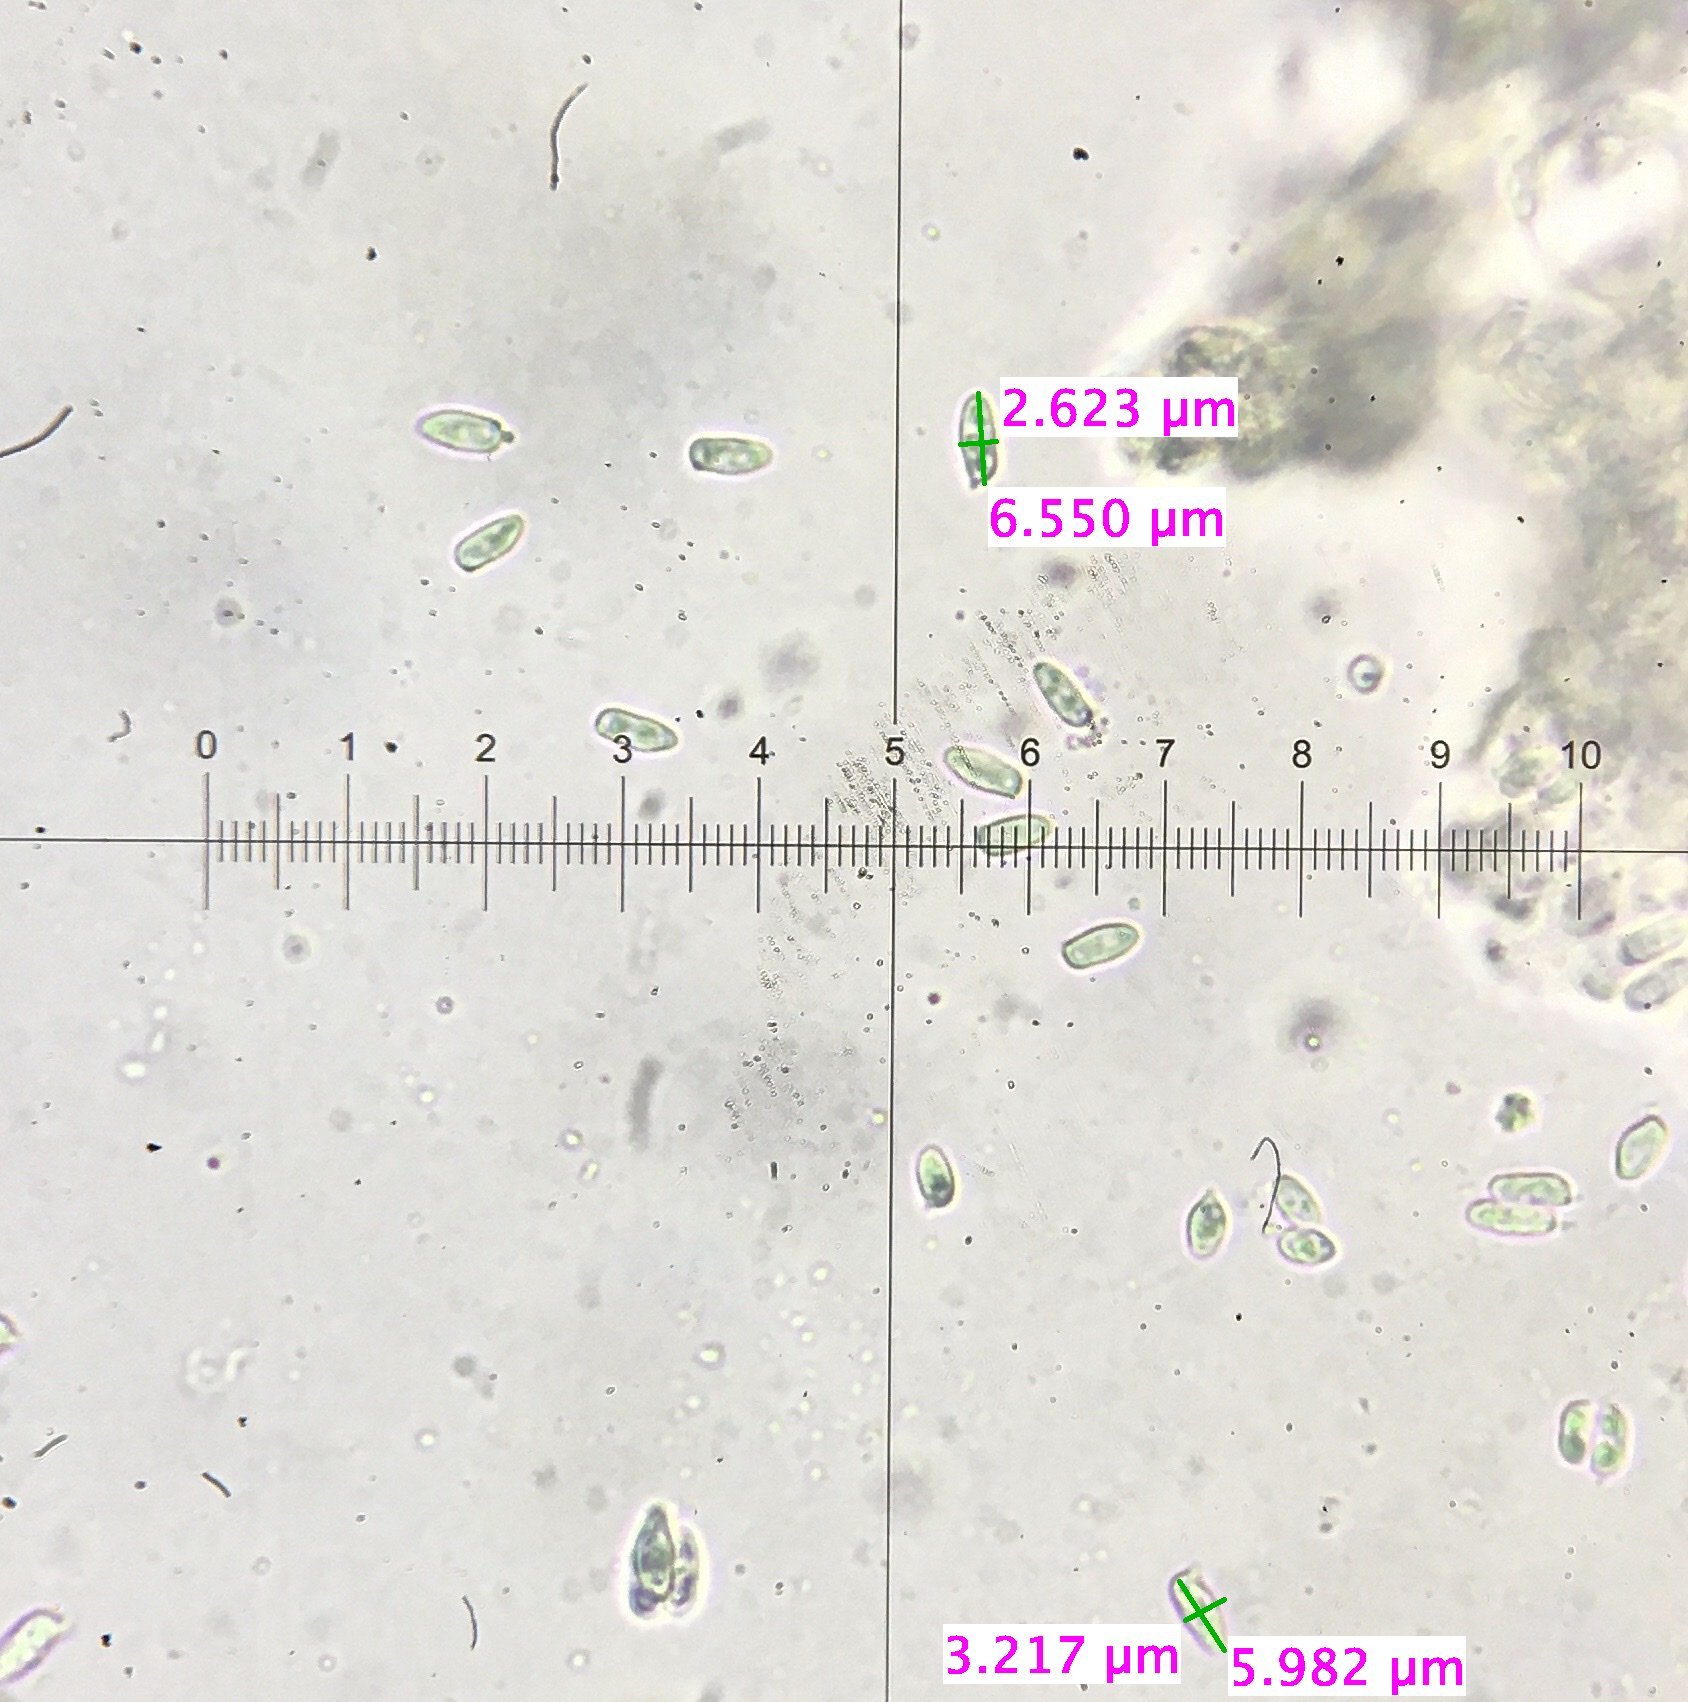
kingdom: Fungi
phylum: Basidiomycota
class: Agaricomycetes
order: Agaricales
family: Agaricaceae
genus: Echinoderma
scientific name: Echinoderma asperum
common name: Freckled dapperling
